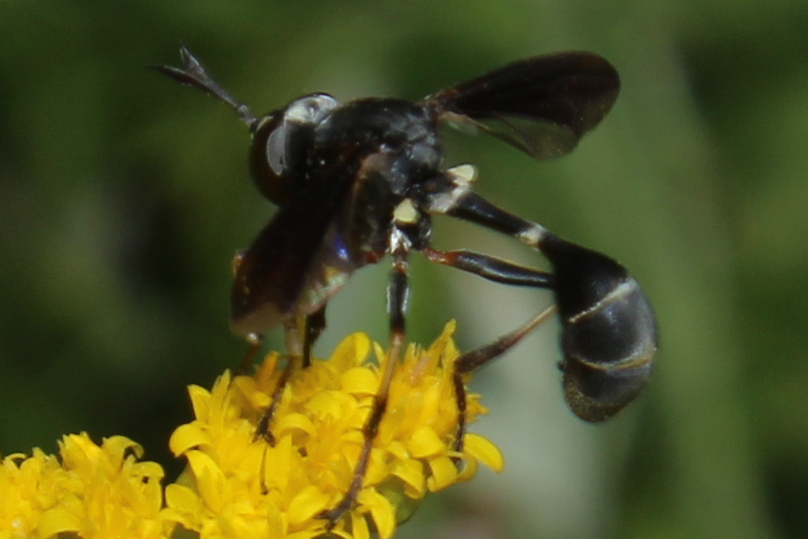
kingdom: Animalia
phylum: Arthropoda
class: Insecta
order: Diptera
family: Conopidae
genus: Physocephala
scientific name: Physocephala tibialis
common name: Common eastern physocephala
